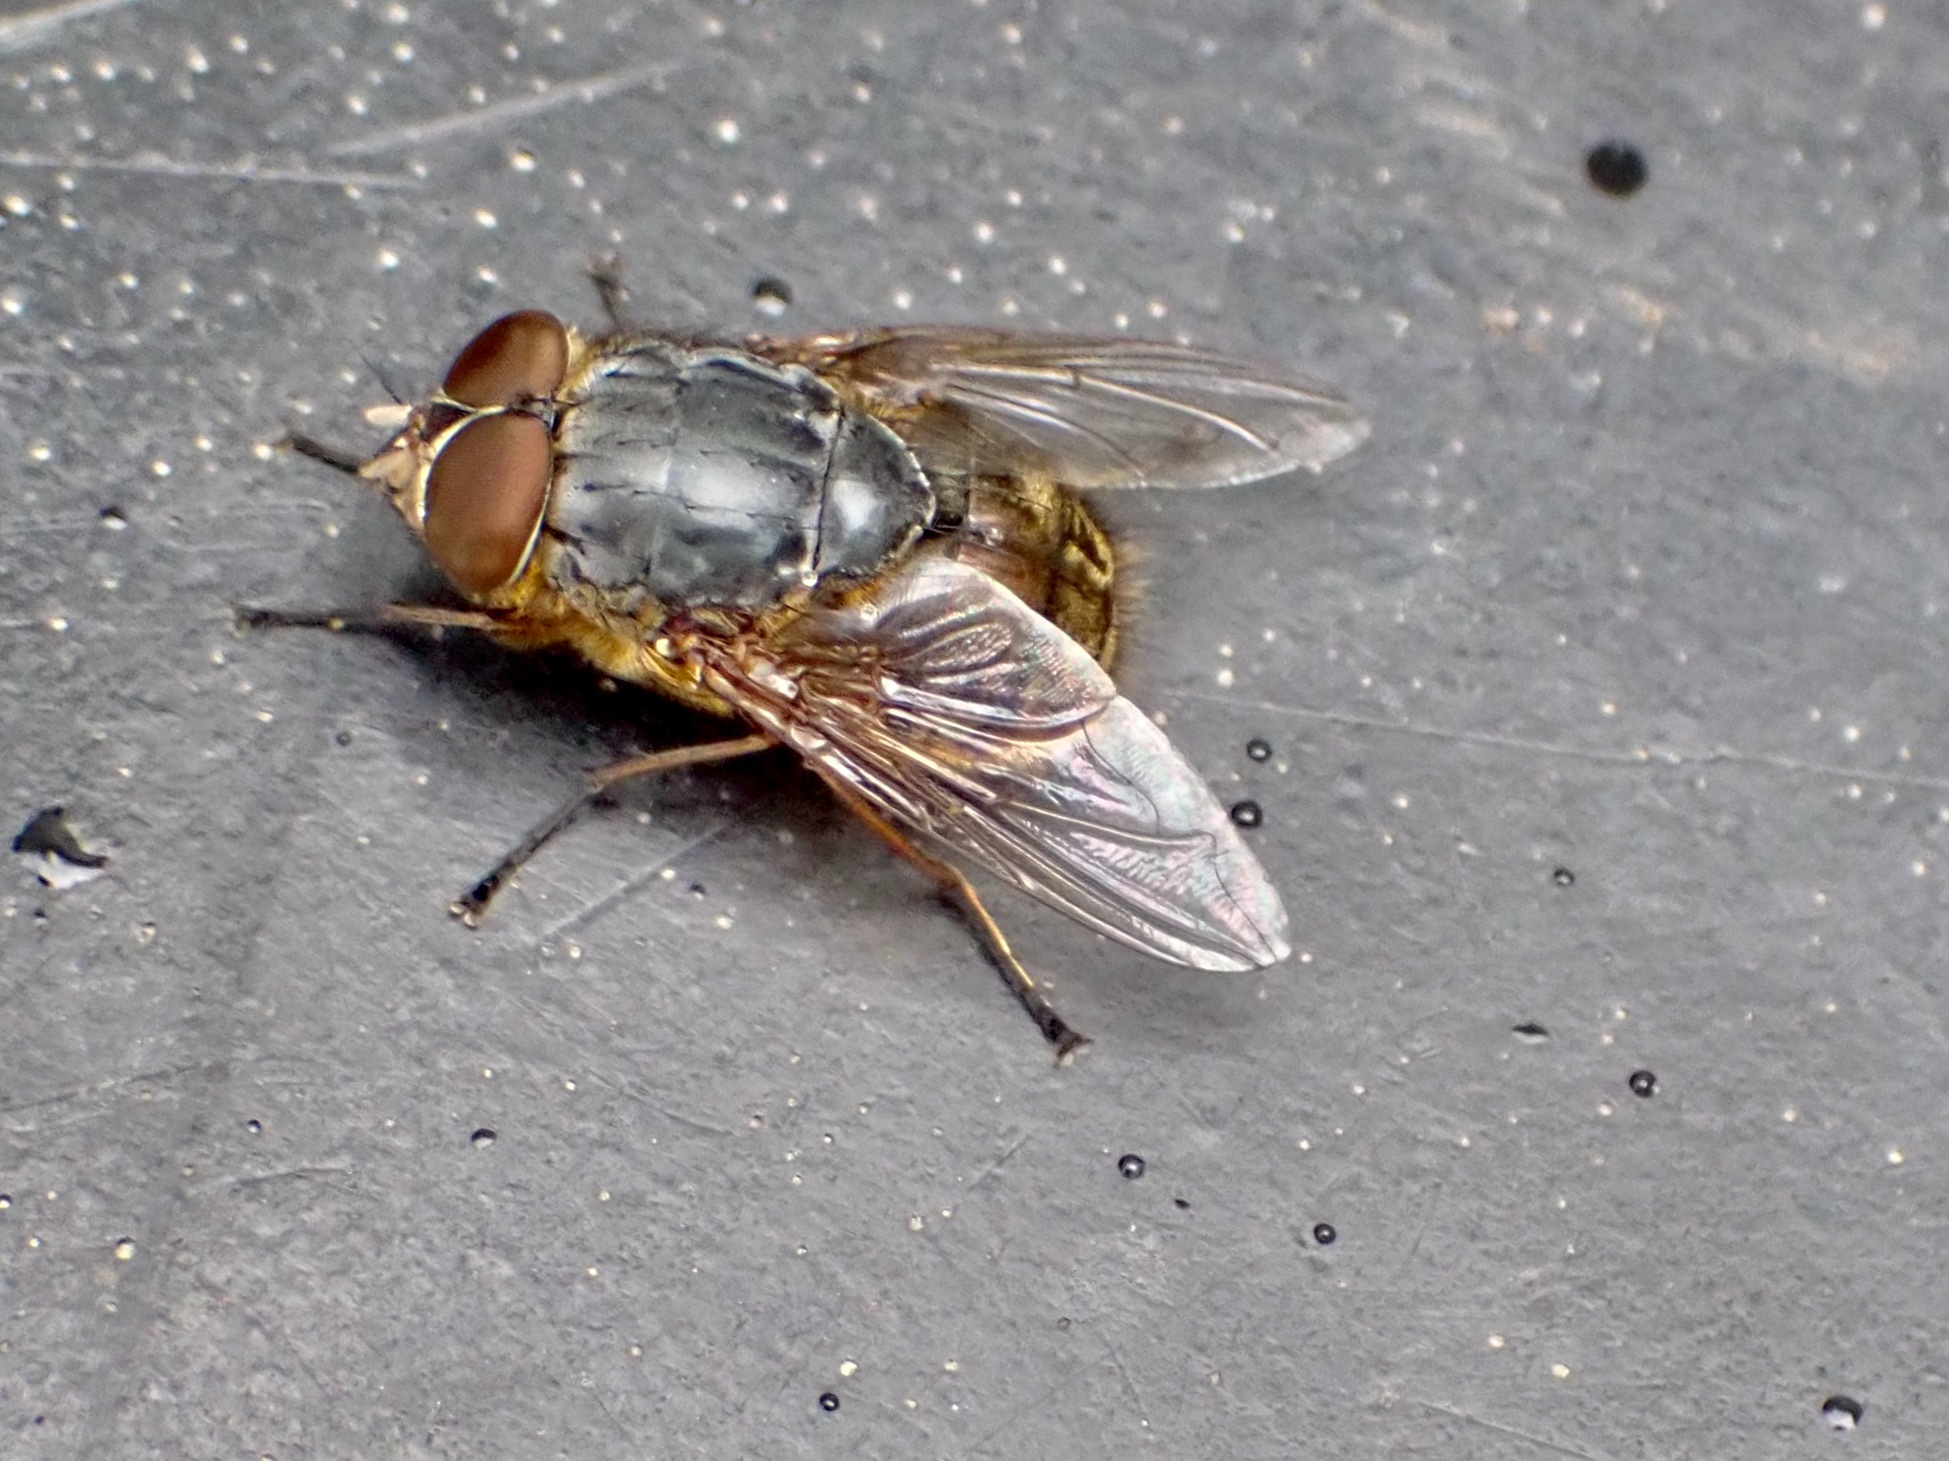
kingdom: Animalia
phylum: Arthropoda
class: Insecta
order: Diptera
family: Calliphoridae
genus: Calliphora
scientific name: Calliphora stygia
